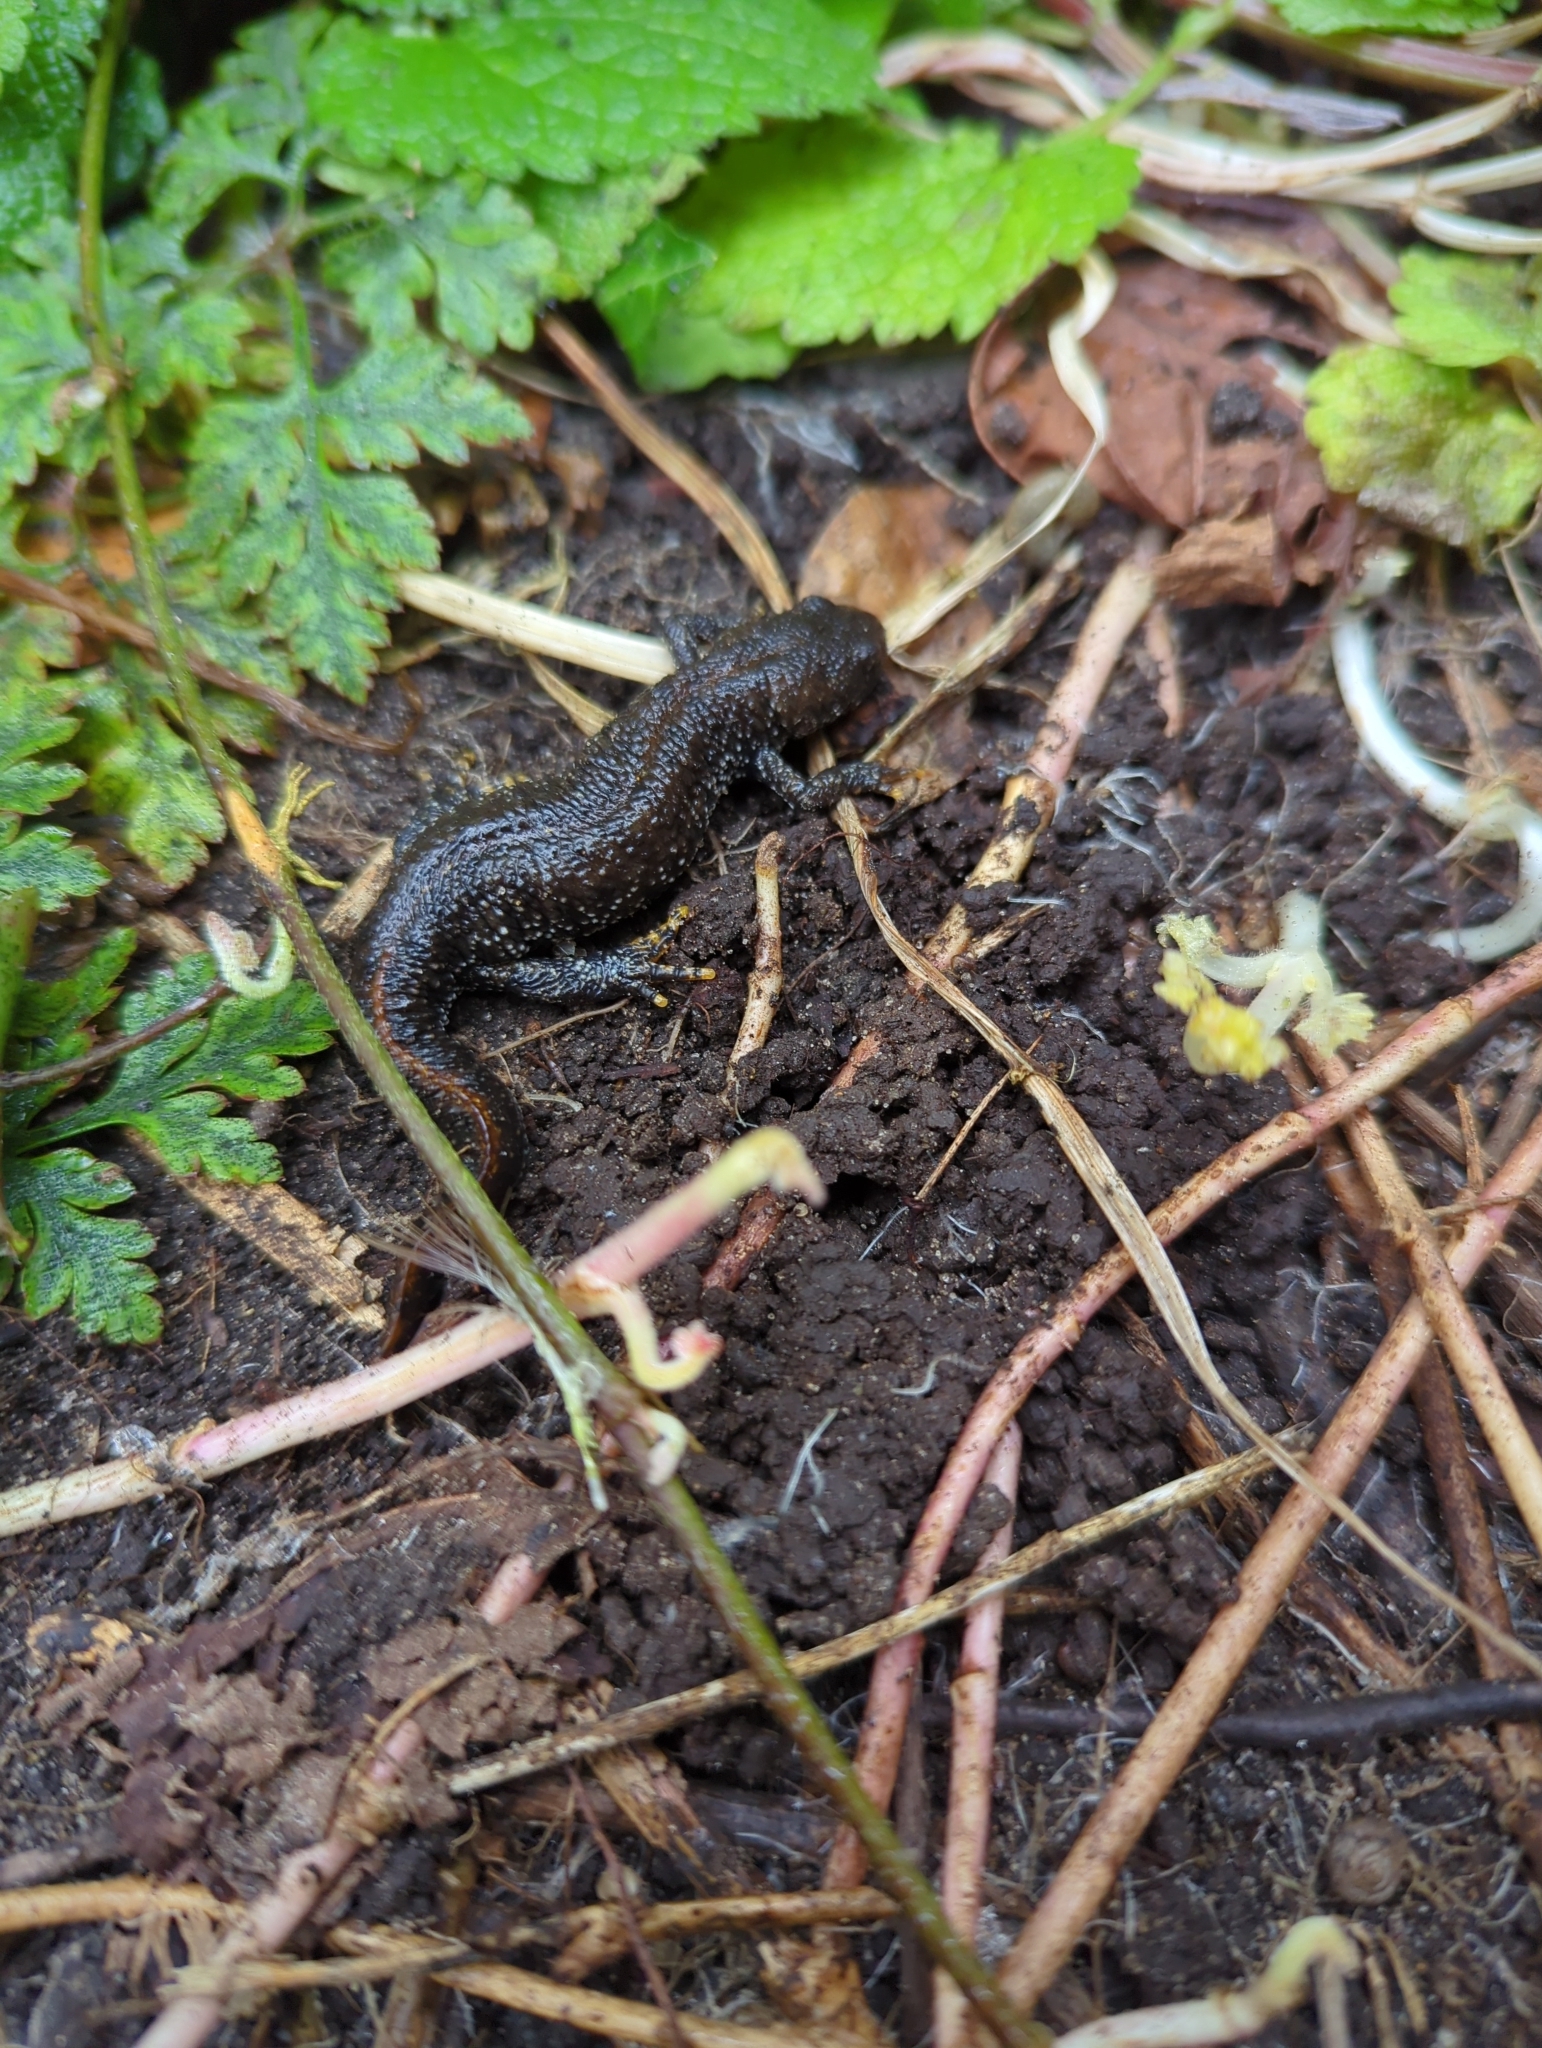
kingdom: Animalia
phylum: Chordata
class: Amphibia
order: Caudata
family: Salamandridae
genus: Triturus
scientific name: Triturus cristatus
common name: Crested newt
